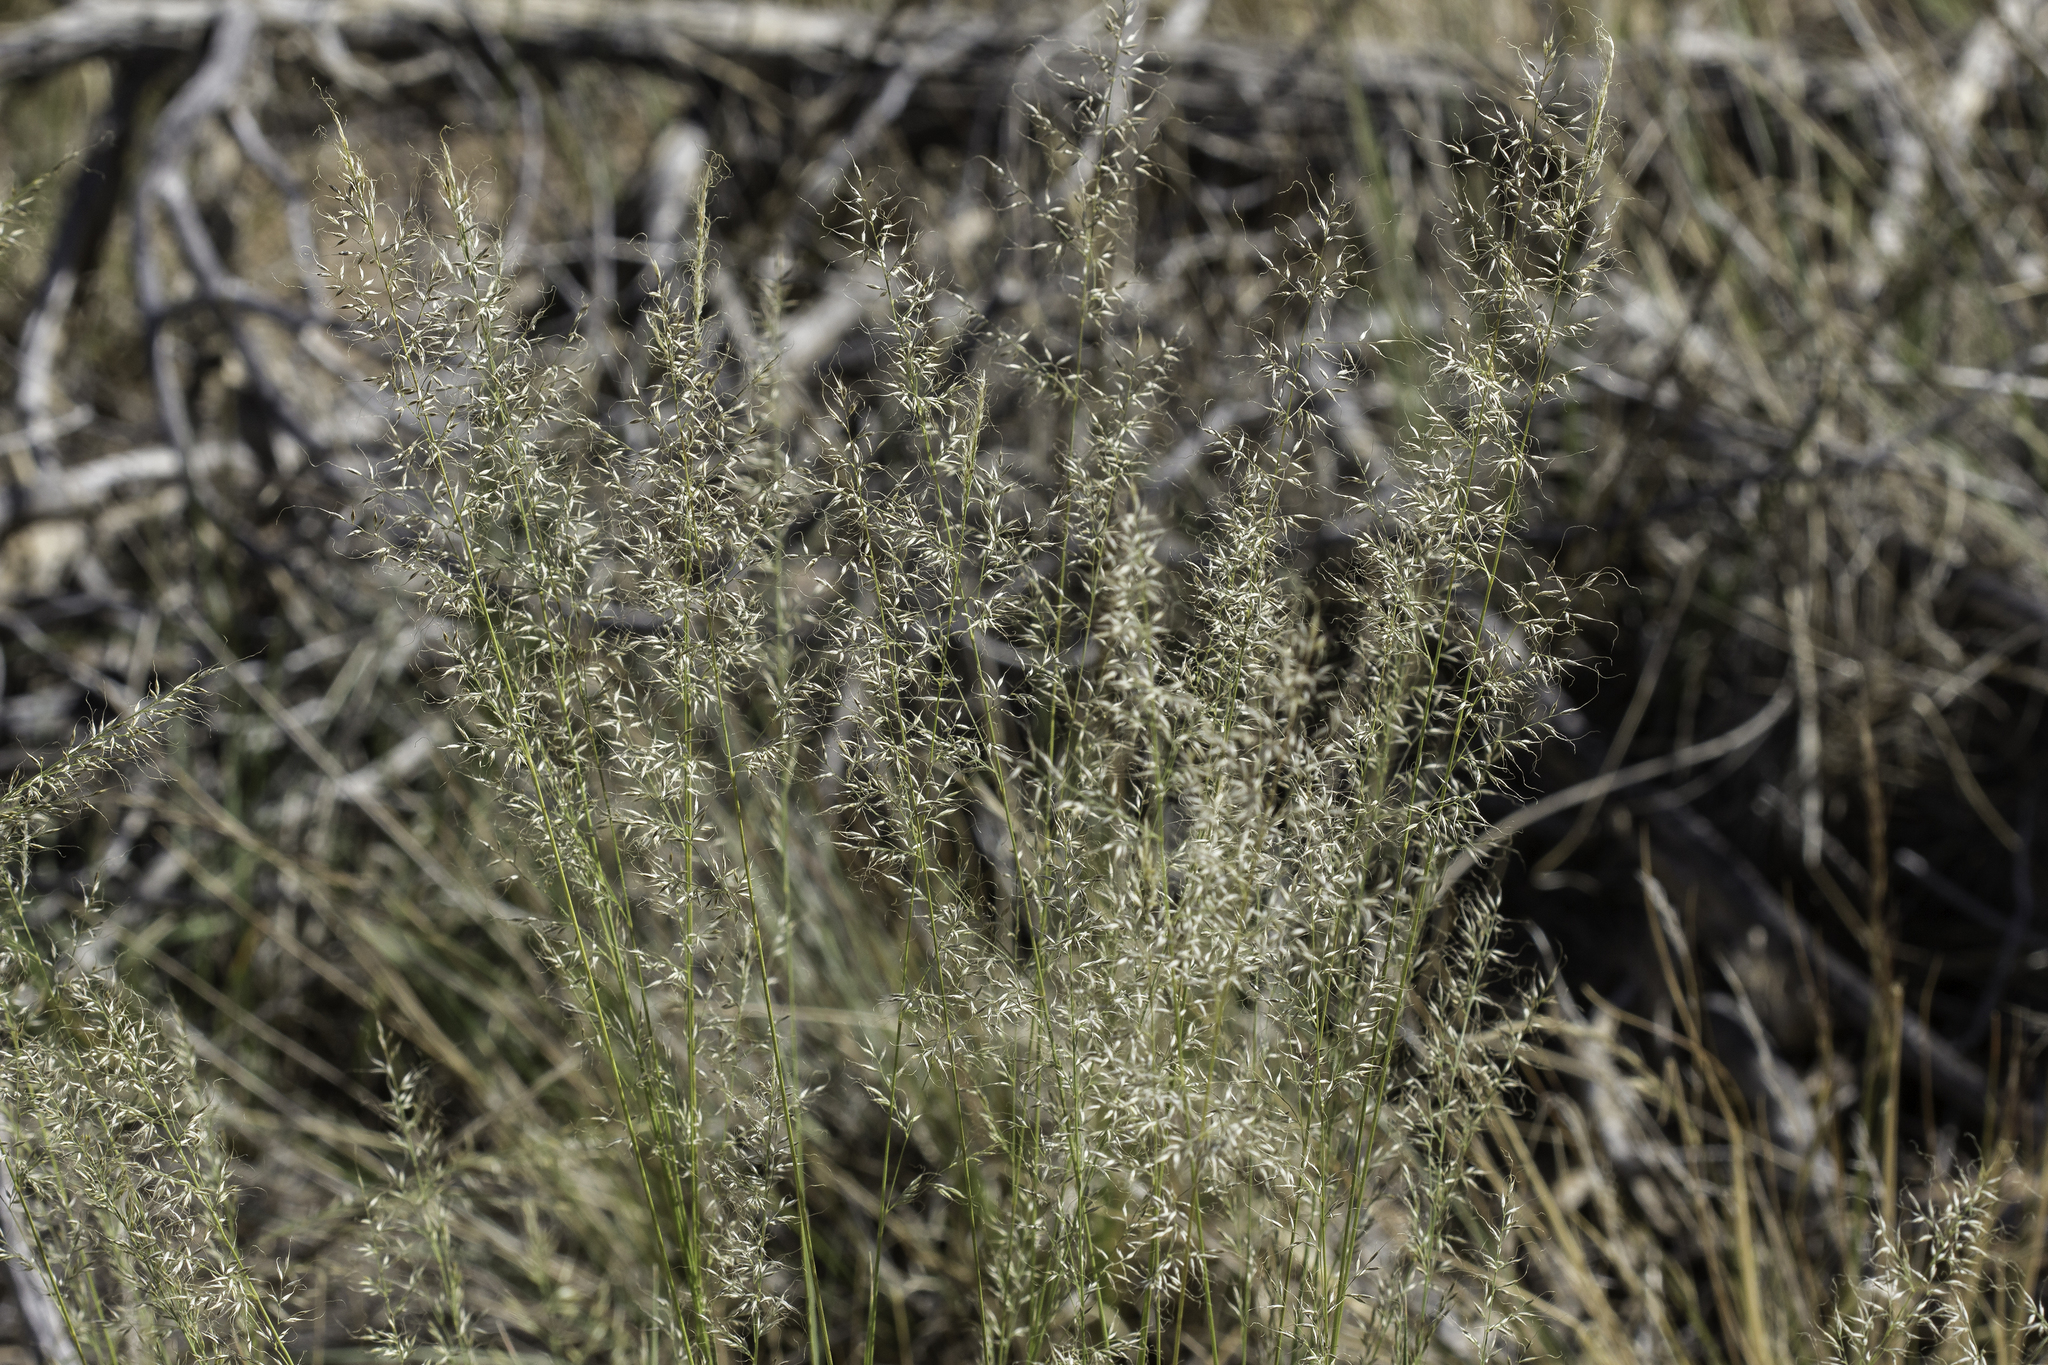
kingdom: Plantae
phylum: Tracheophyta
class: Liliopsida
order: Poales
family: Poaceae
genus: Muhlenbergia
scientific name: Muhlenbergia montana
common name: Mountain muhly
